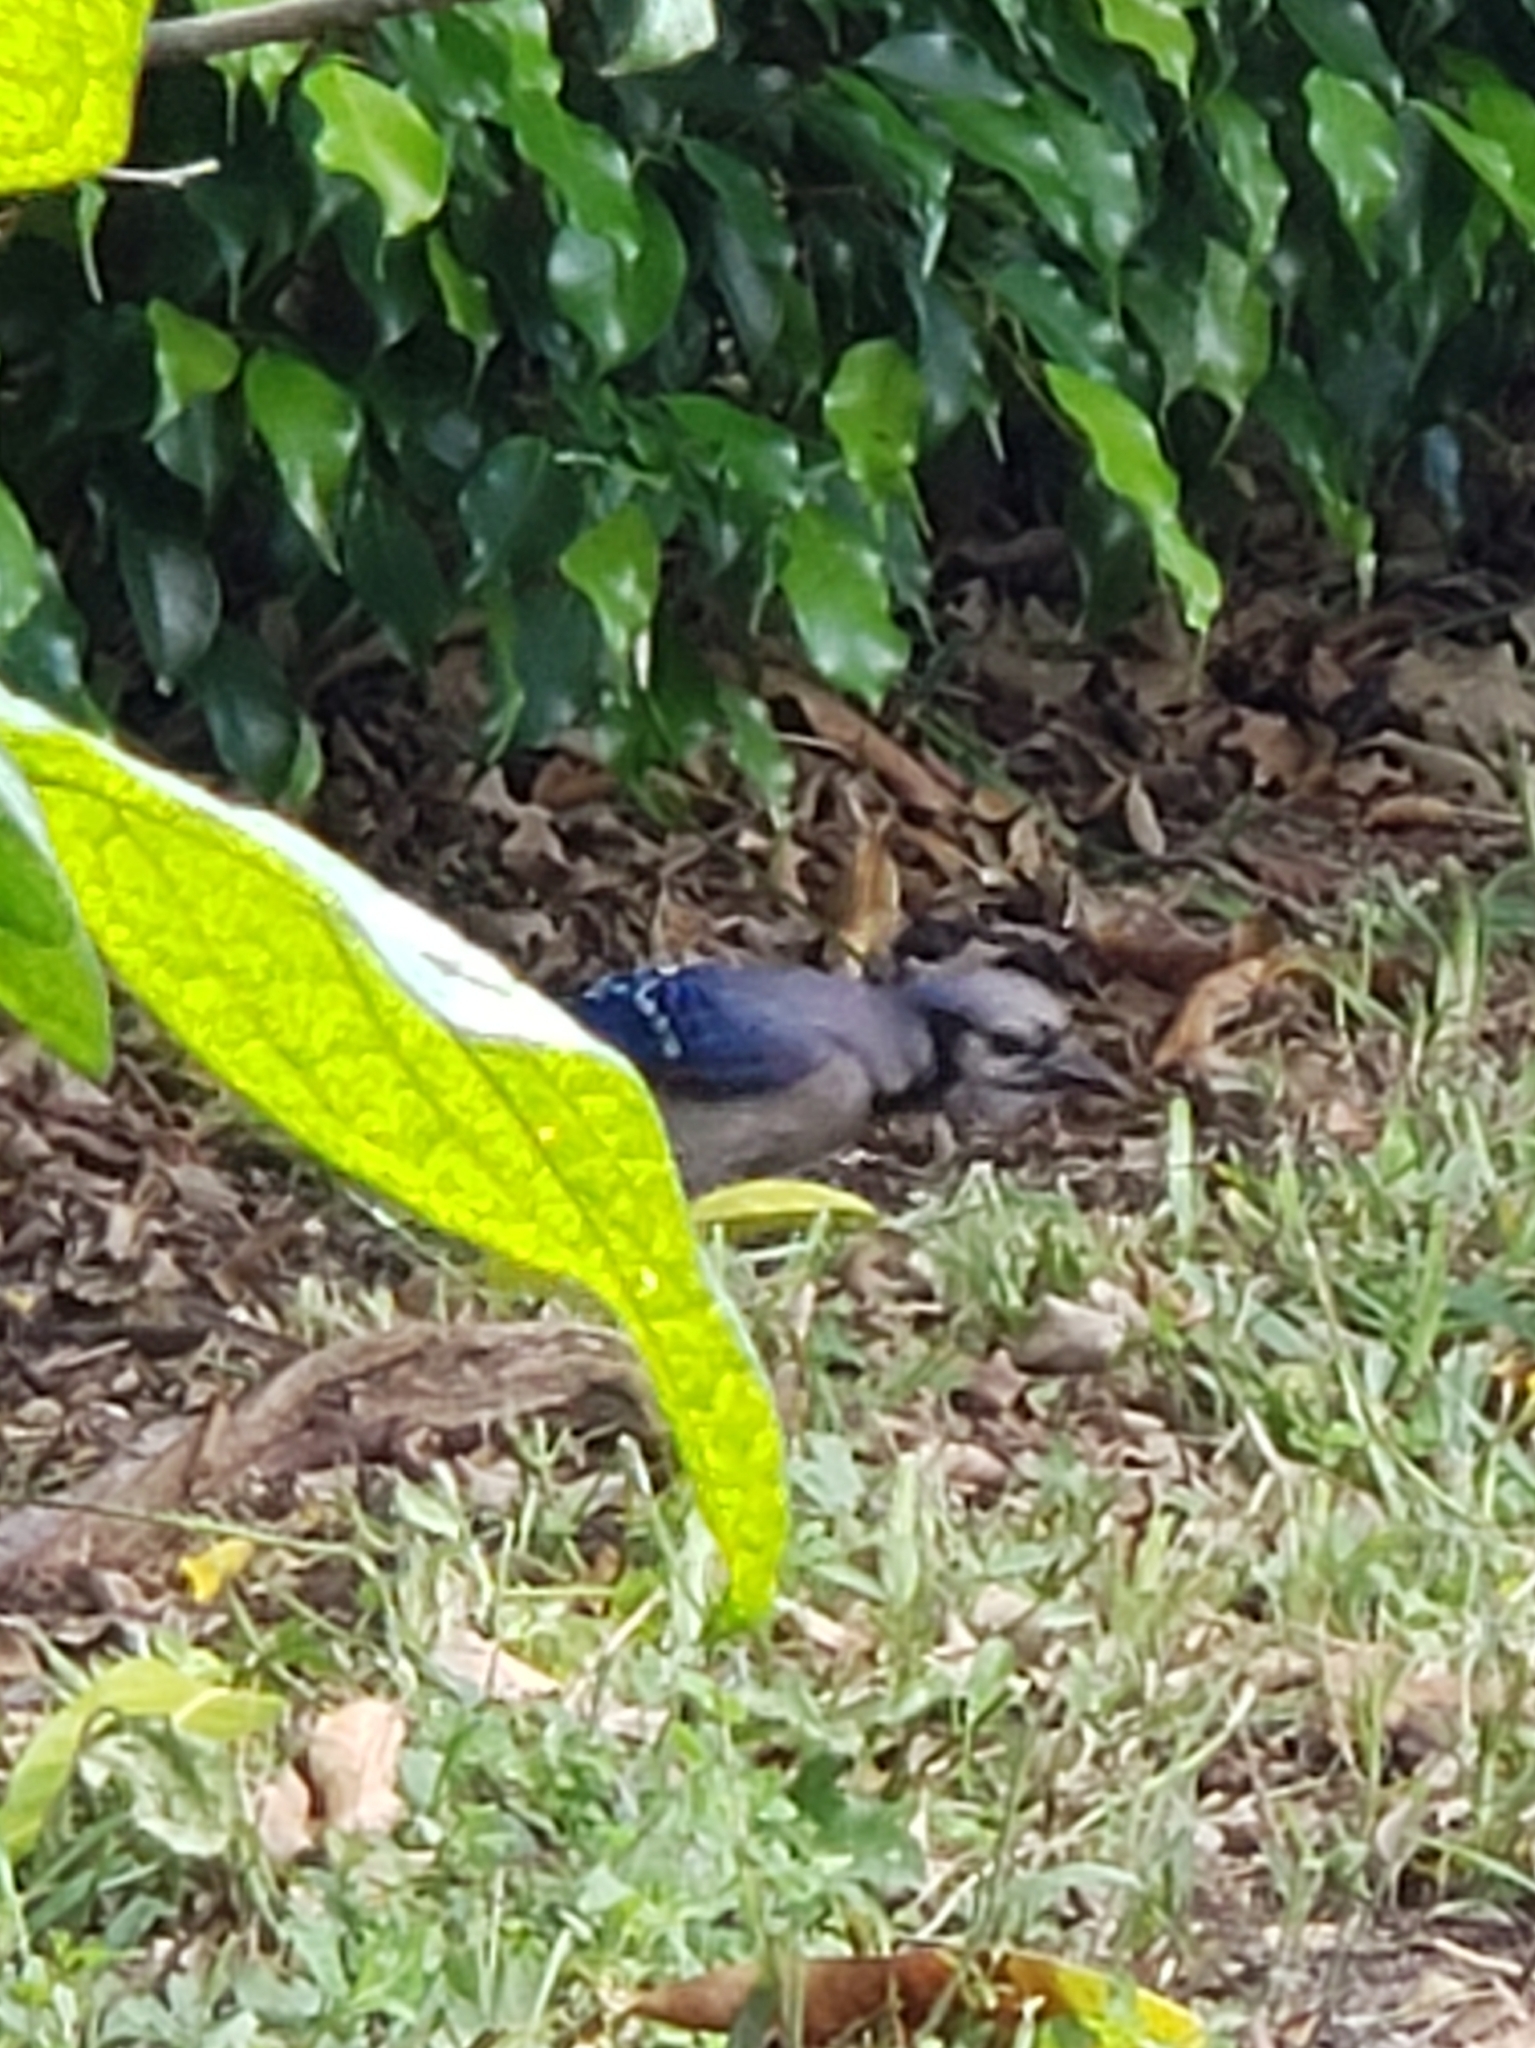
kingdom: Animalia
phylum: Chordata
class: Aves
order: Passeriformes
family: Corvidae
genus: Cyanocitta
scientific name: Cyanocitta cristata
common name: Blue jay
